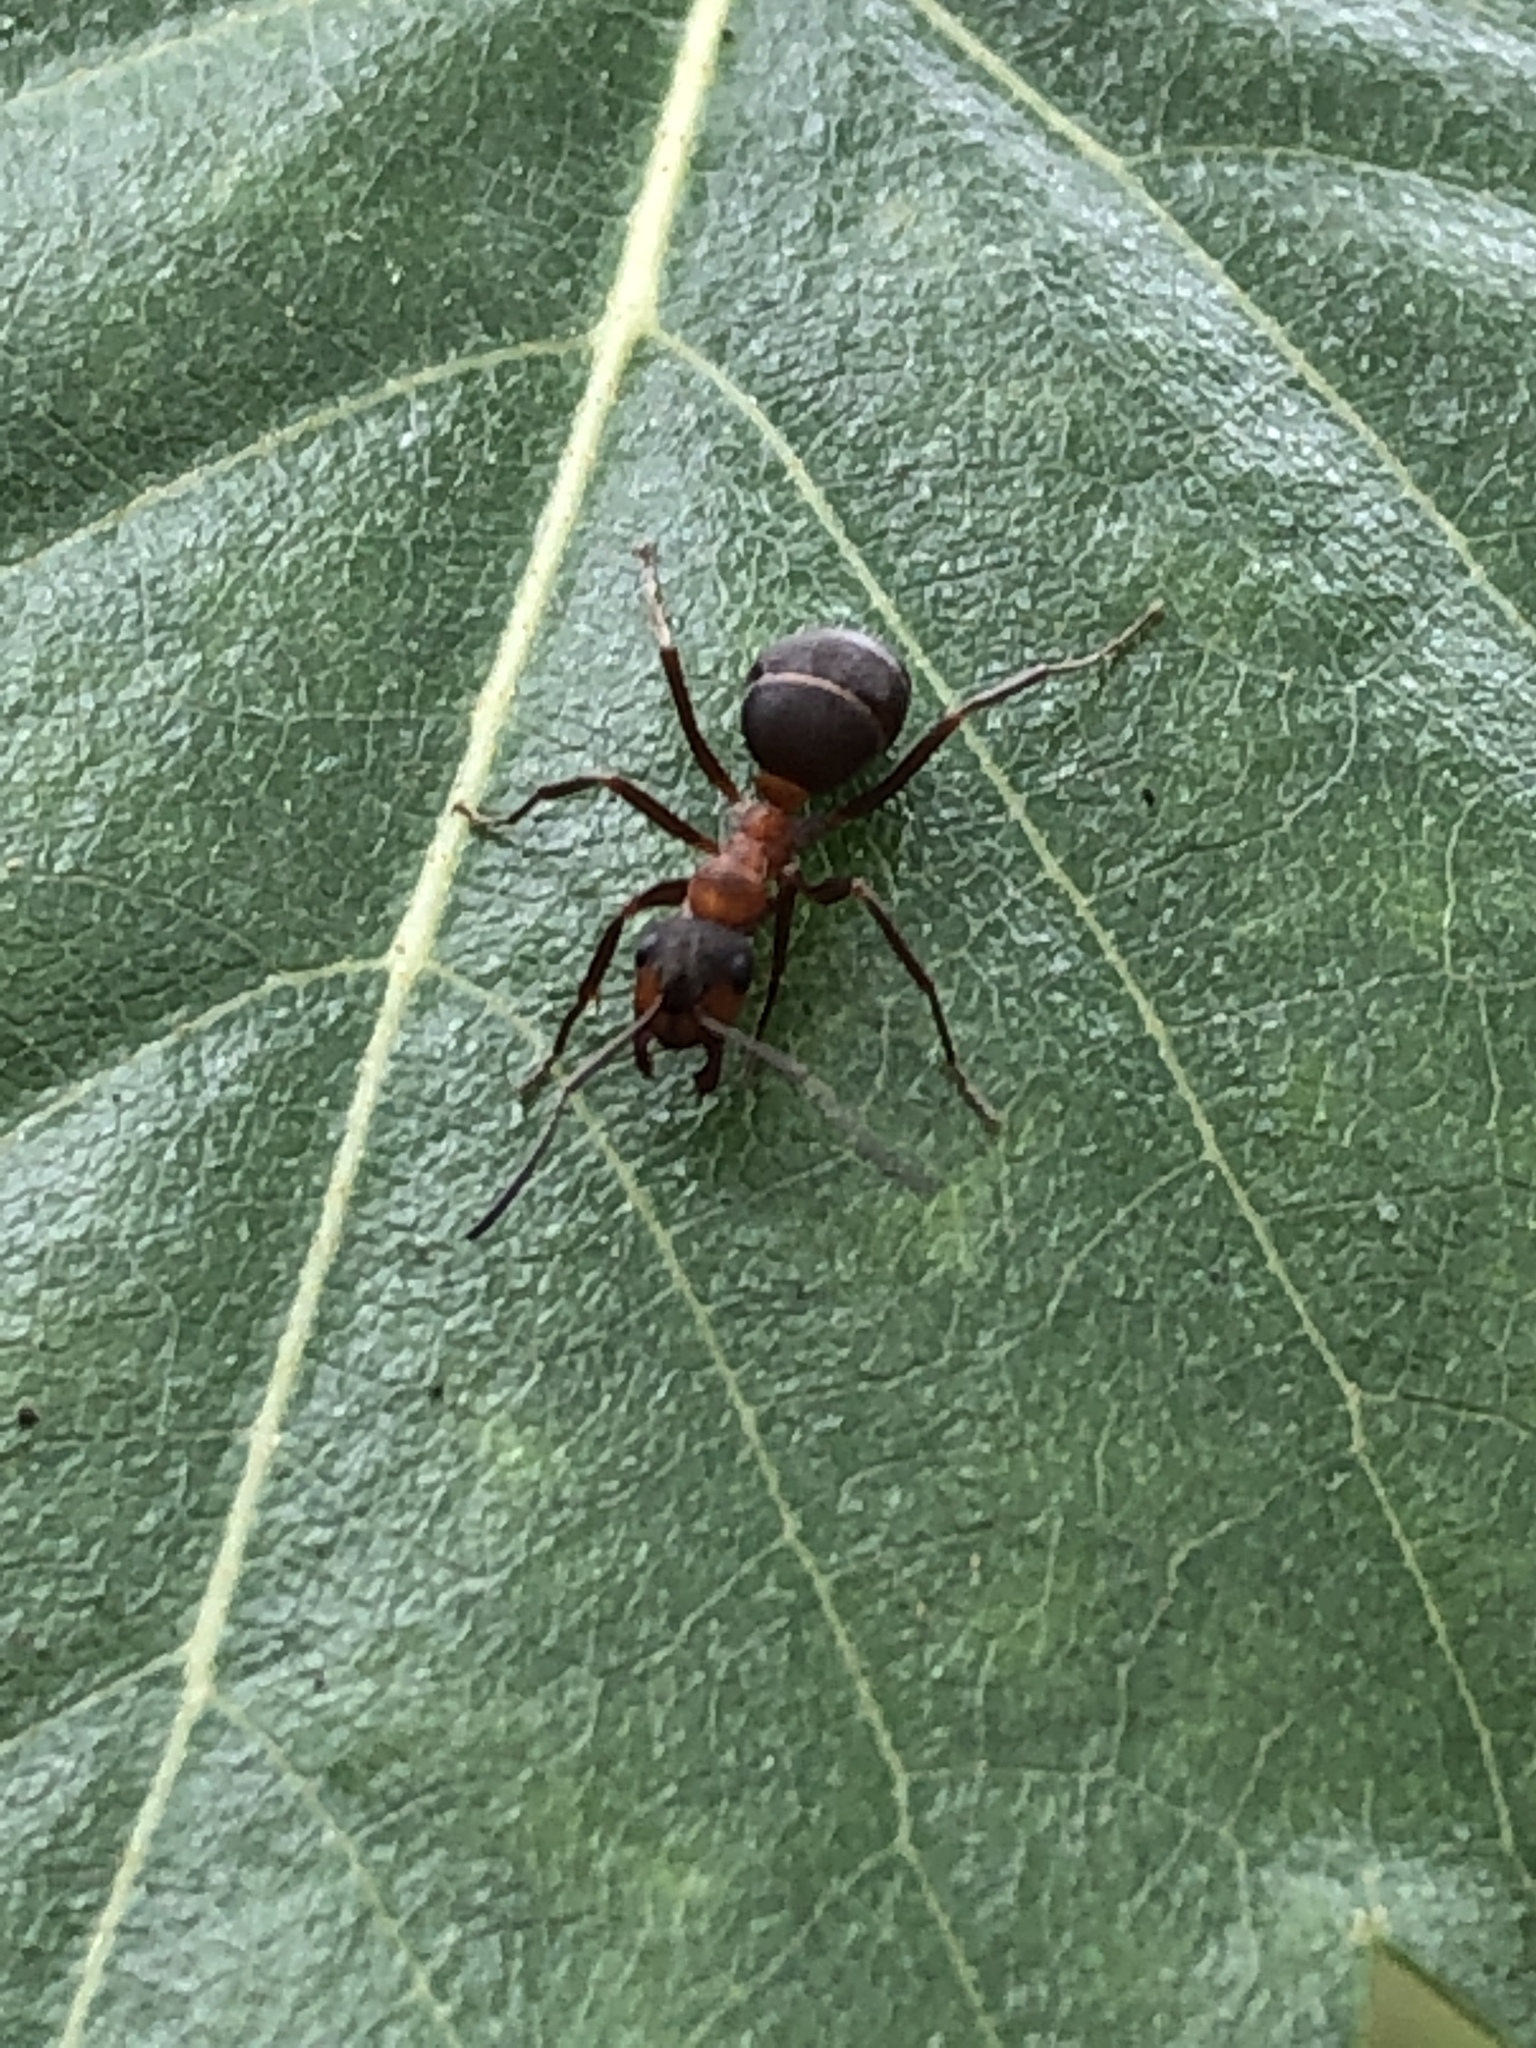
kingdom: Animalia
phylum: Arthropoda
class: Insecta
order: Hymenoptera
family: Formicidae
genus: Formica
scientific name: Formica
